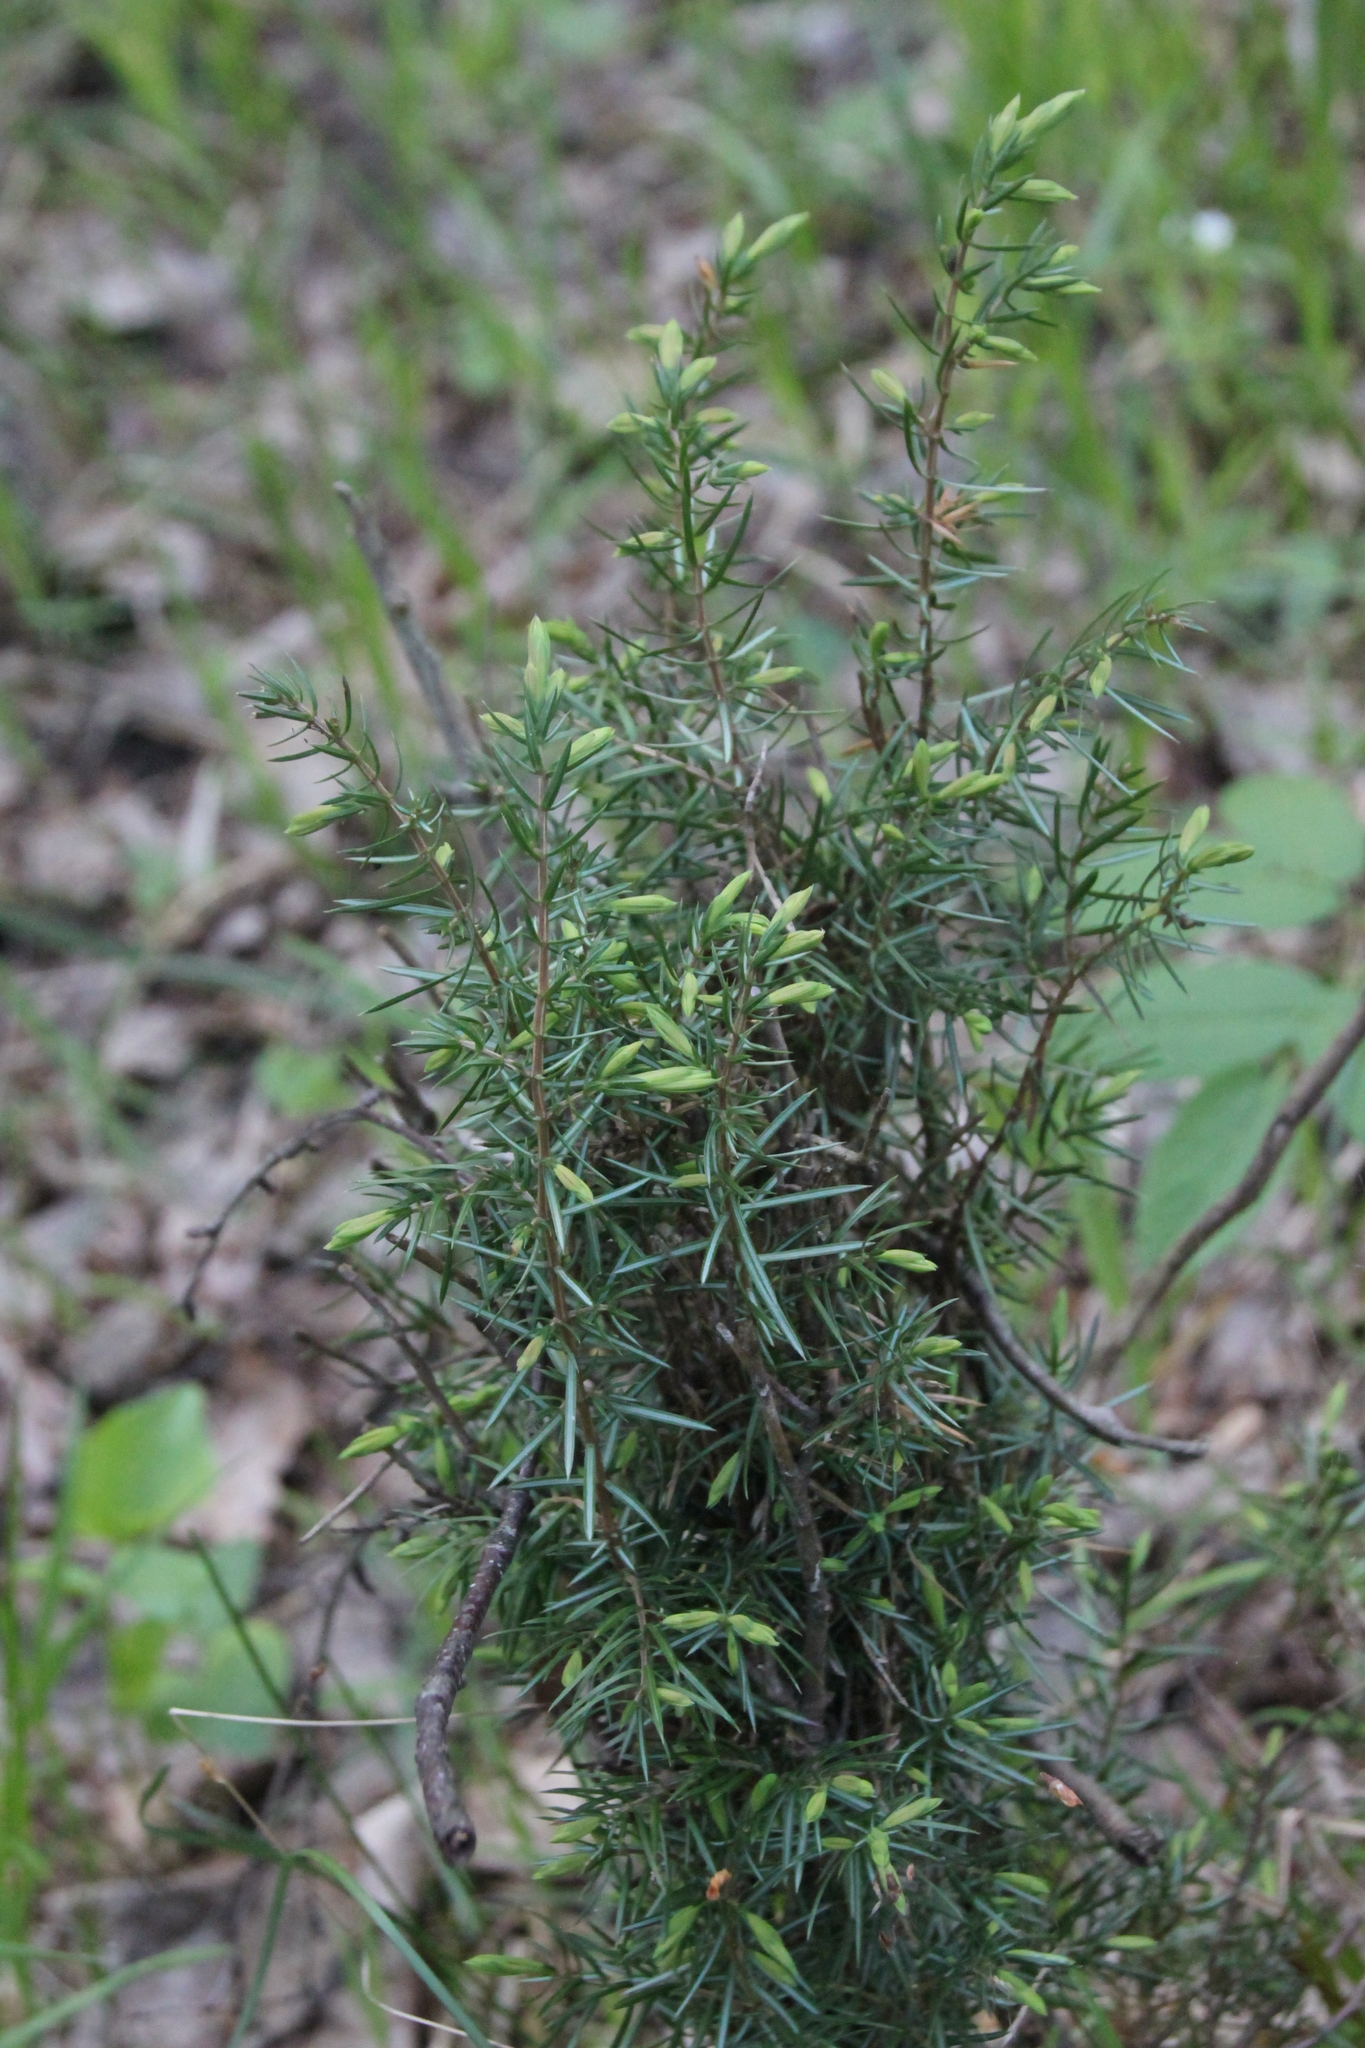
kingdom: Plantae
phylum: Tracheophyta
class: Pinopsida
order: Pinales
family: Cupressaceae
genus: Juniperus
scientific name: Juniperus communis
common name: Common juniper
